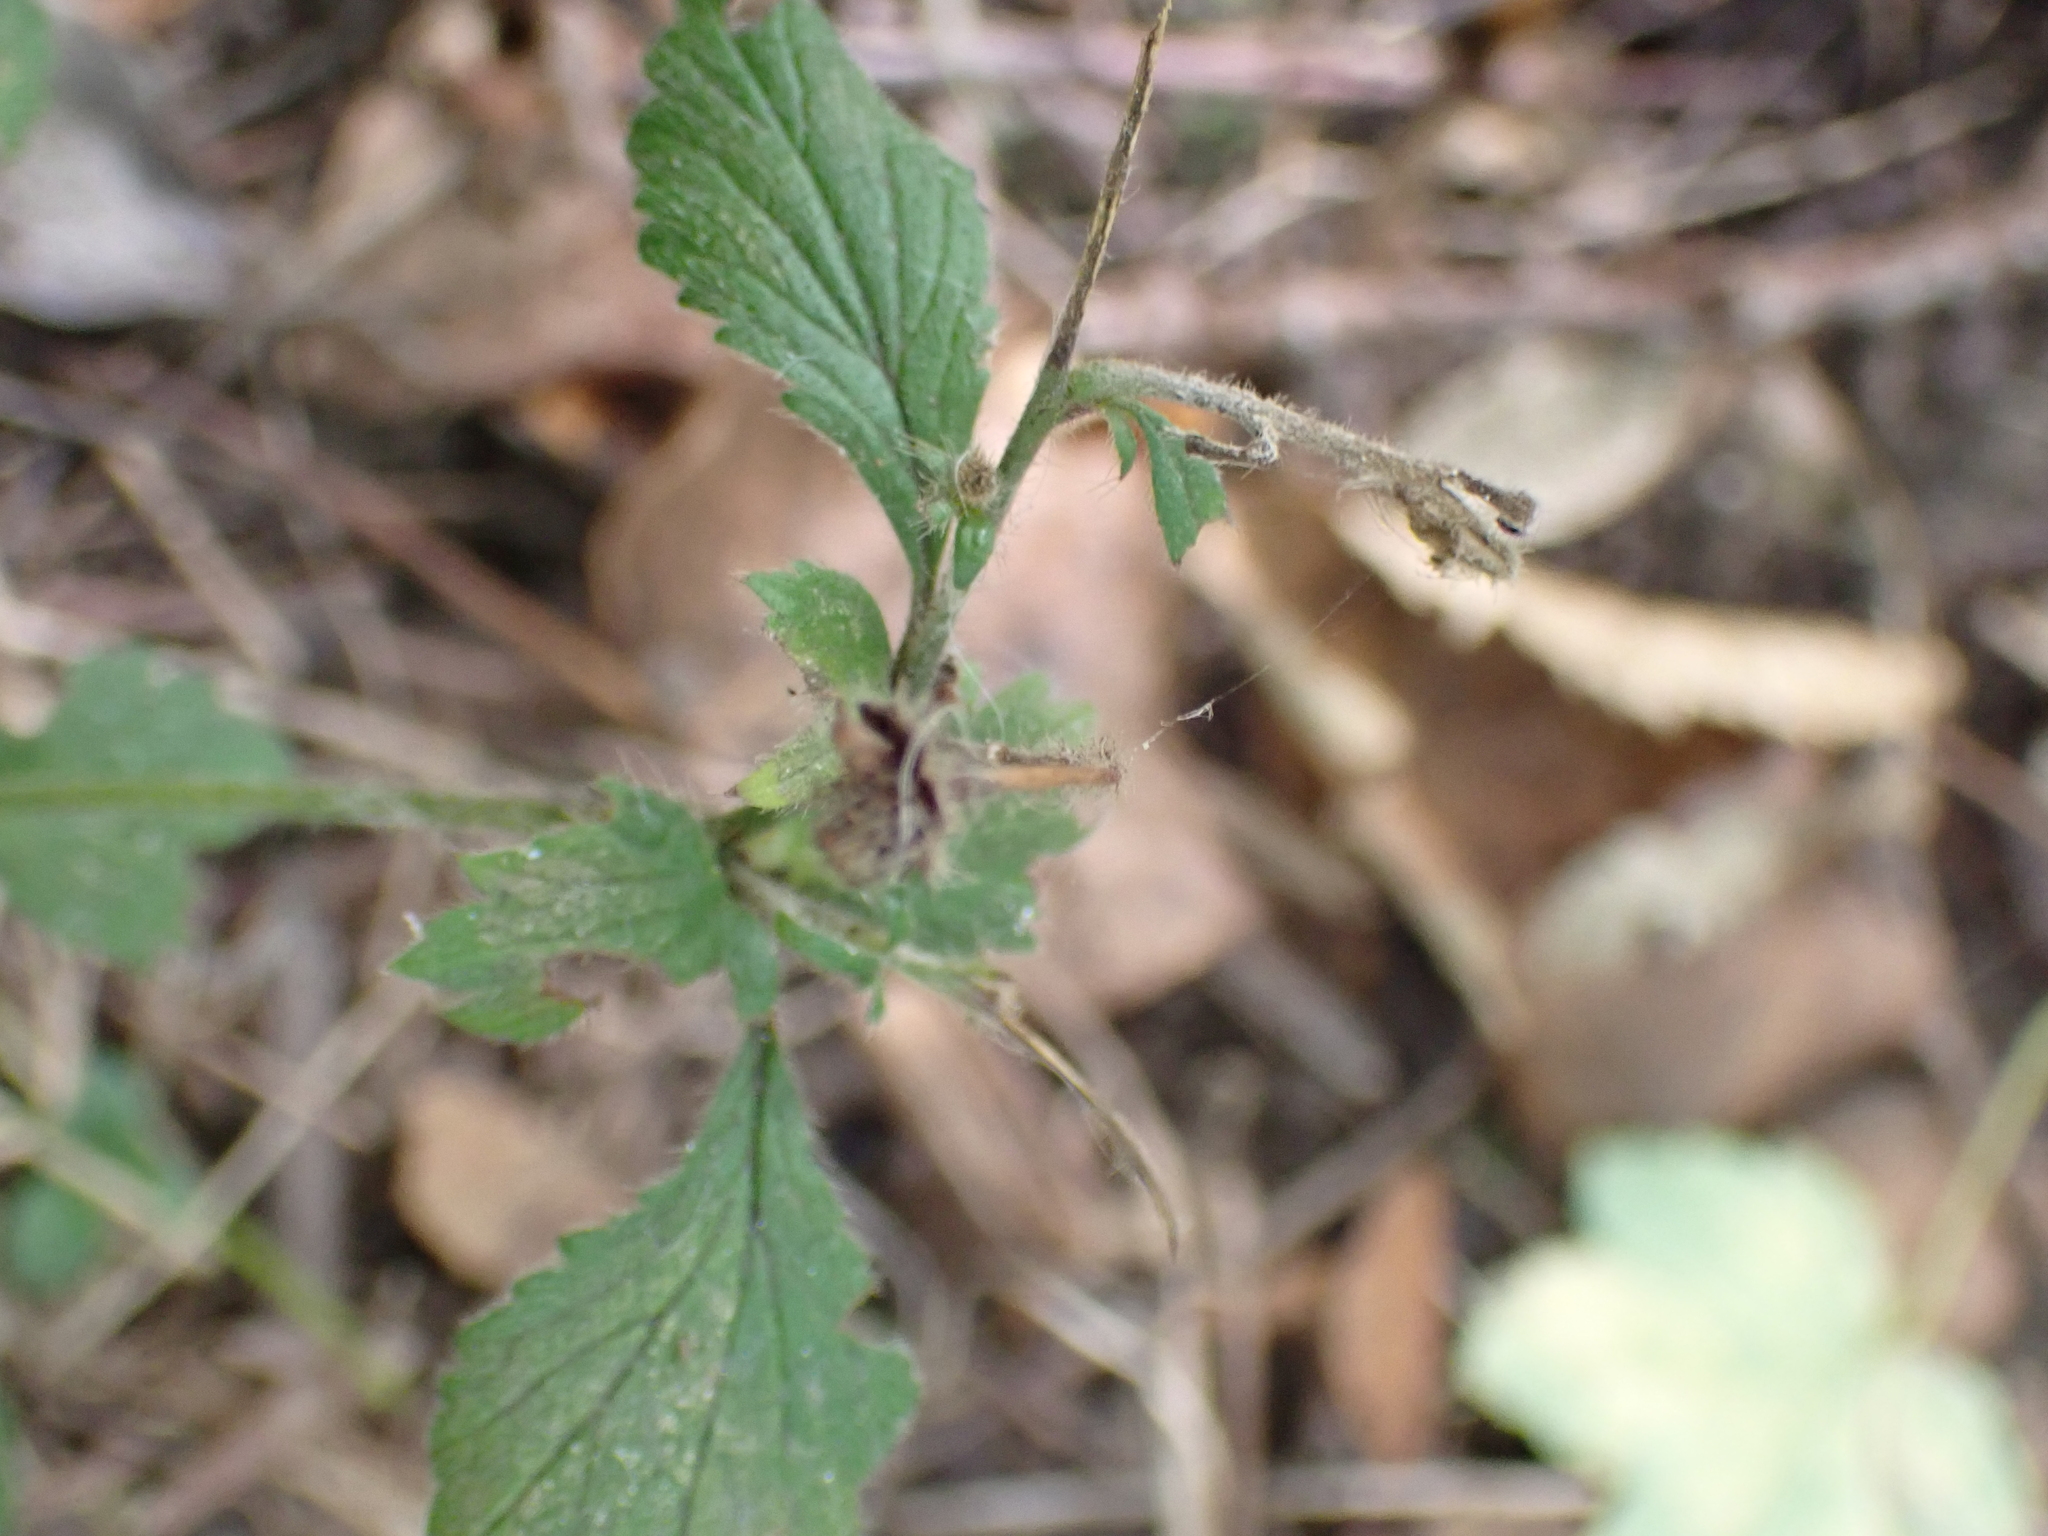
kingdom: Plantae
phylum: Tracheophyta
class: Magnoliopsida
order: Rosales
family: Rosaceae
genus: Geum
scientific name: Geum urbanum
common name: Wood avens
